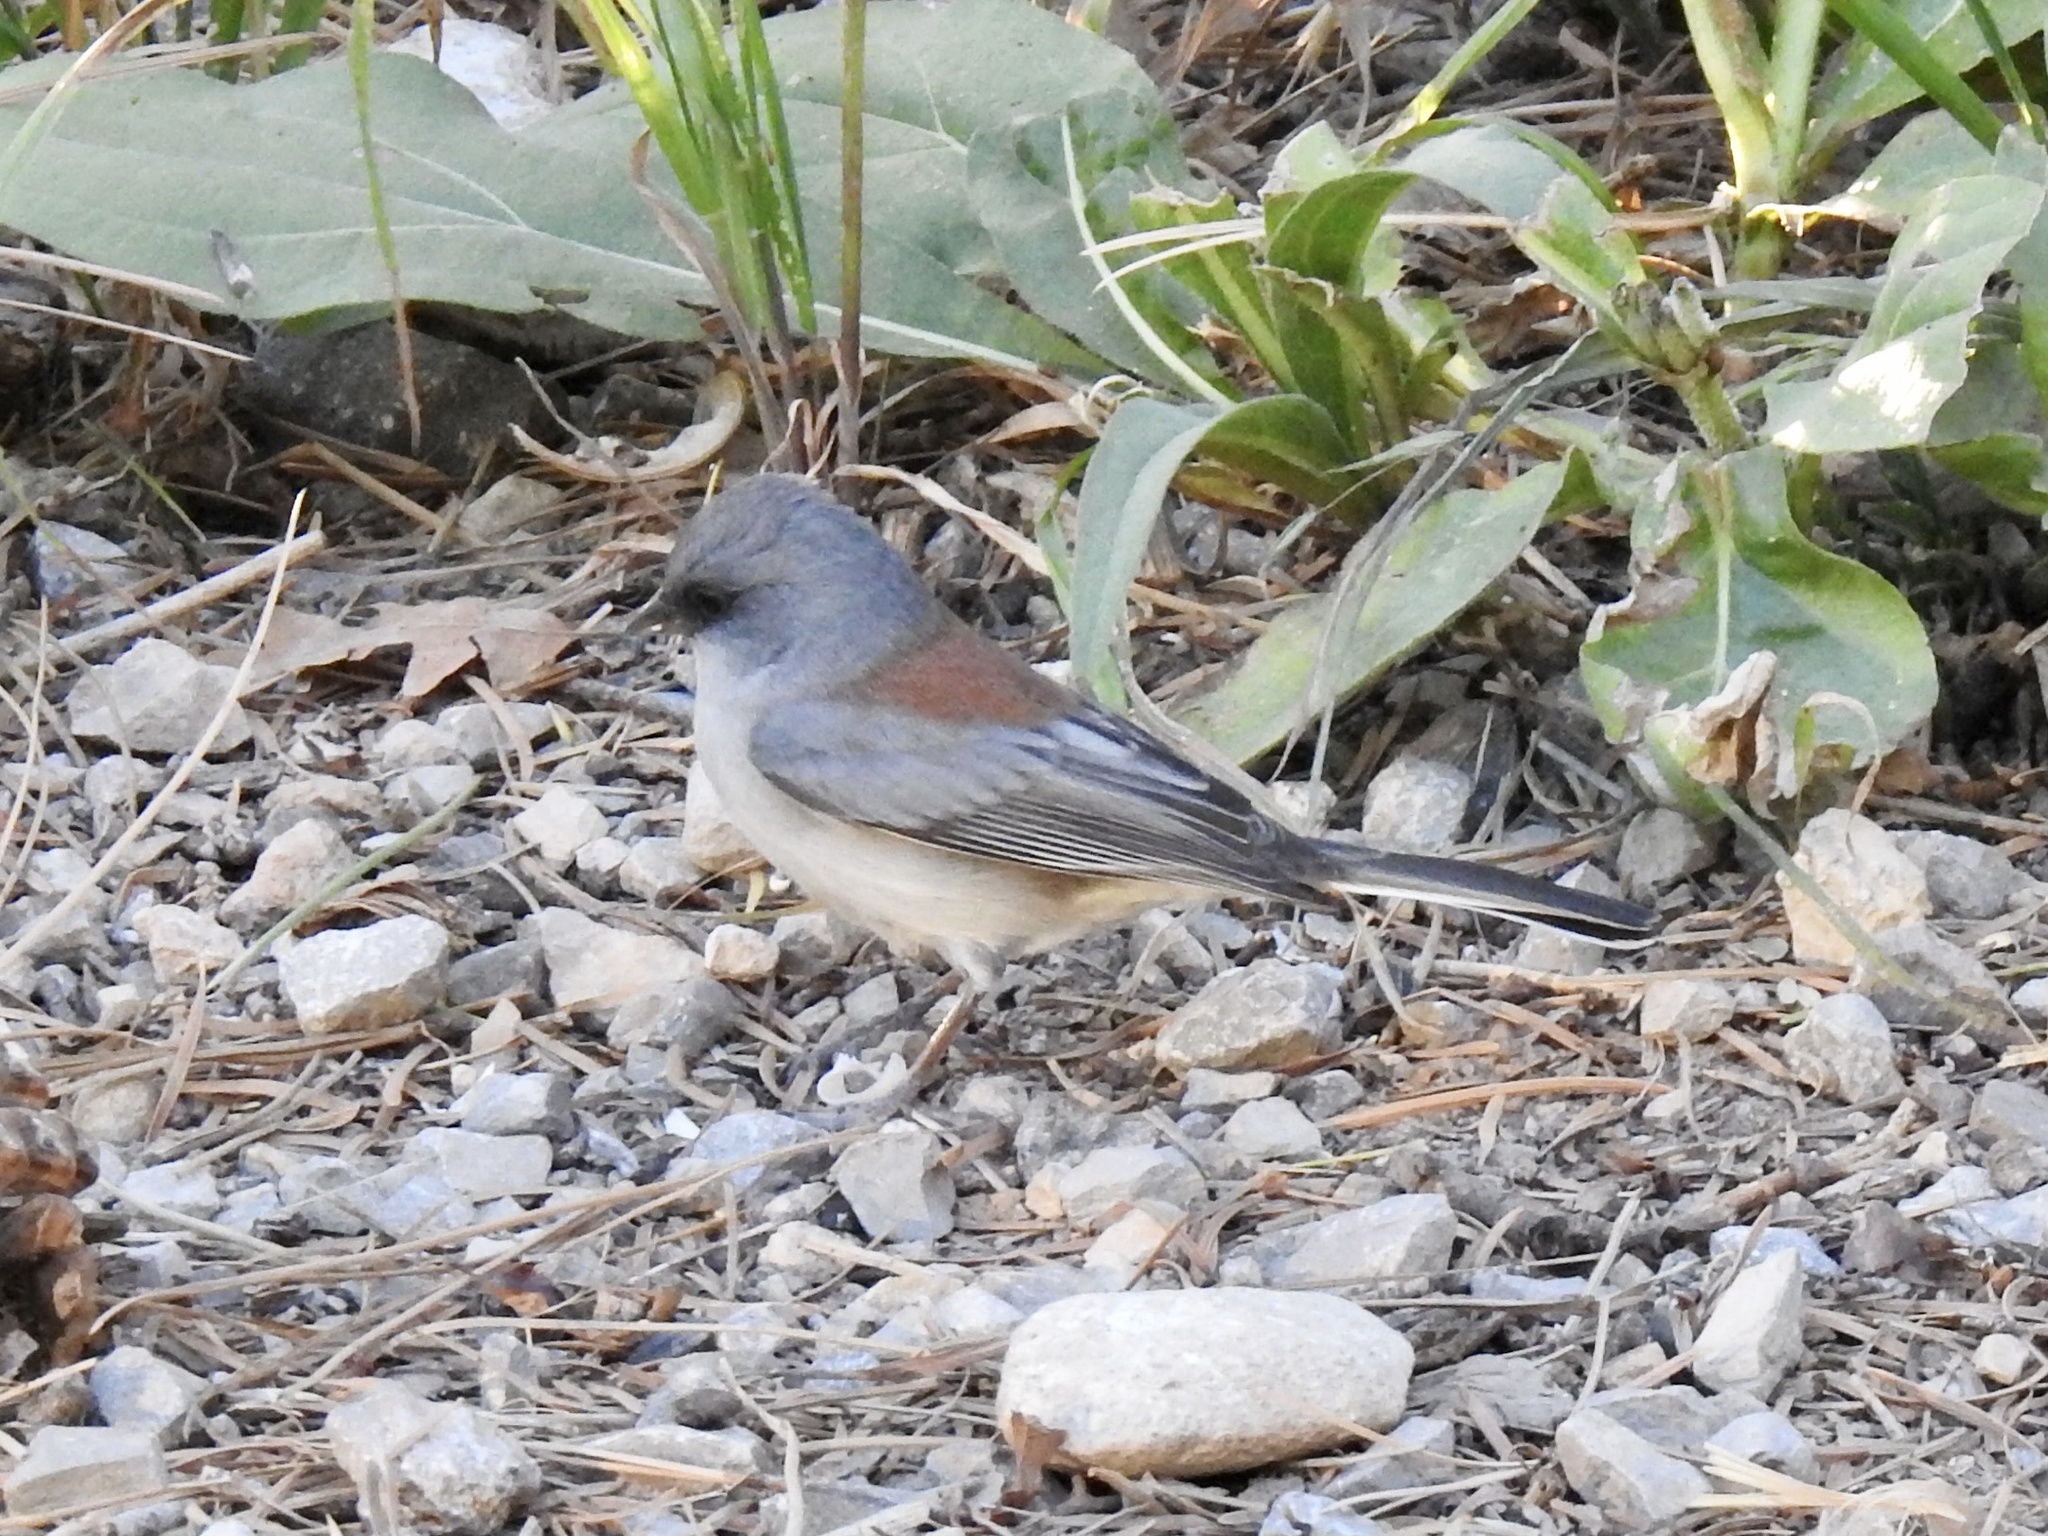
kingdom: Animalia
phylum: Chordata
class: Aves
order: Passeriformes
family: Passerellidae
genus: Junco
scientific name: Junco hyemalis
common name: Dark-eyed junco
